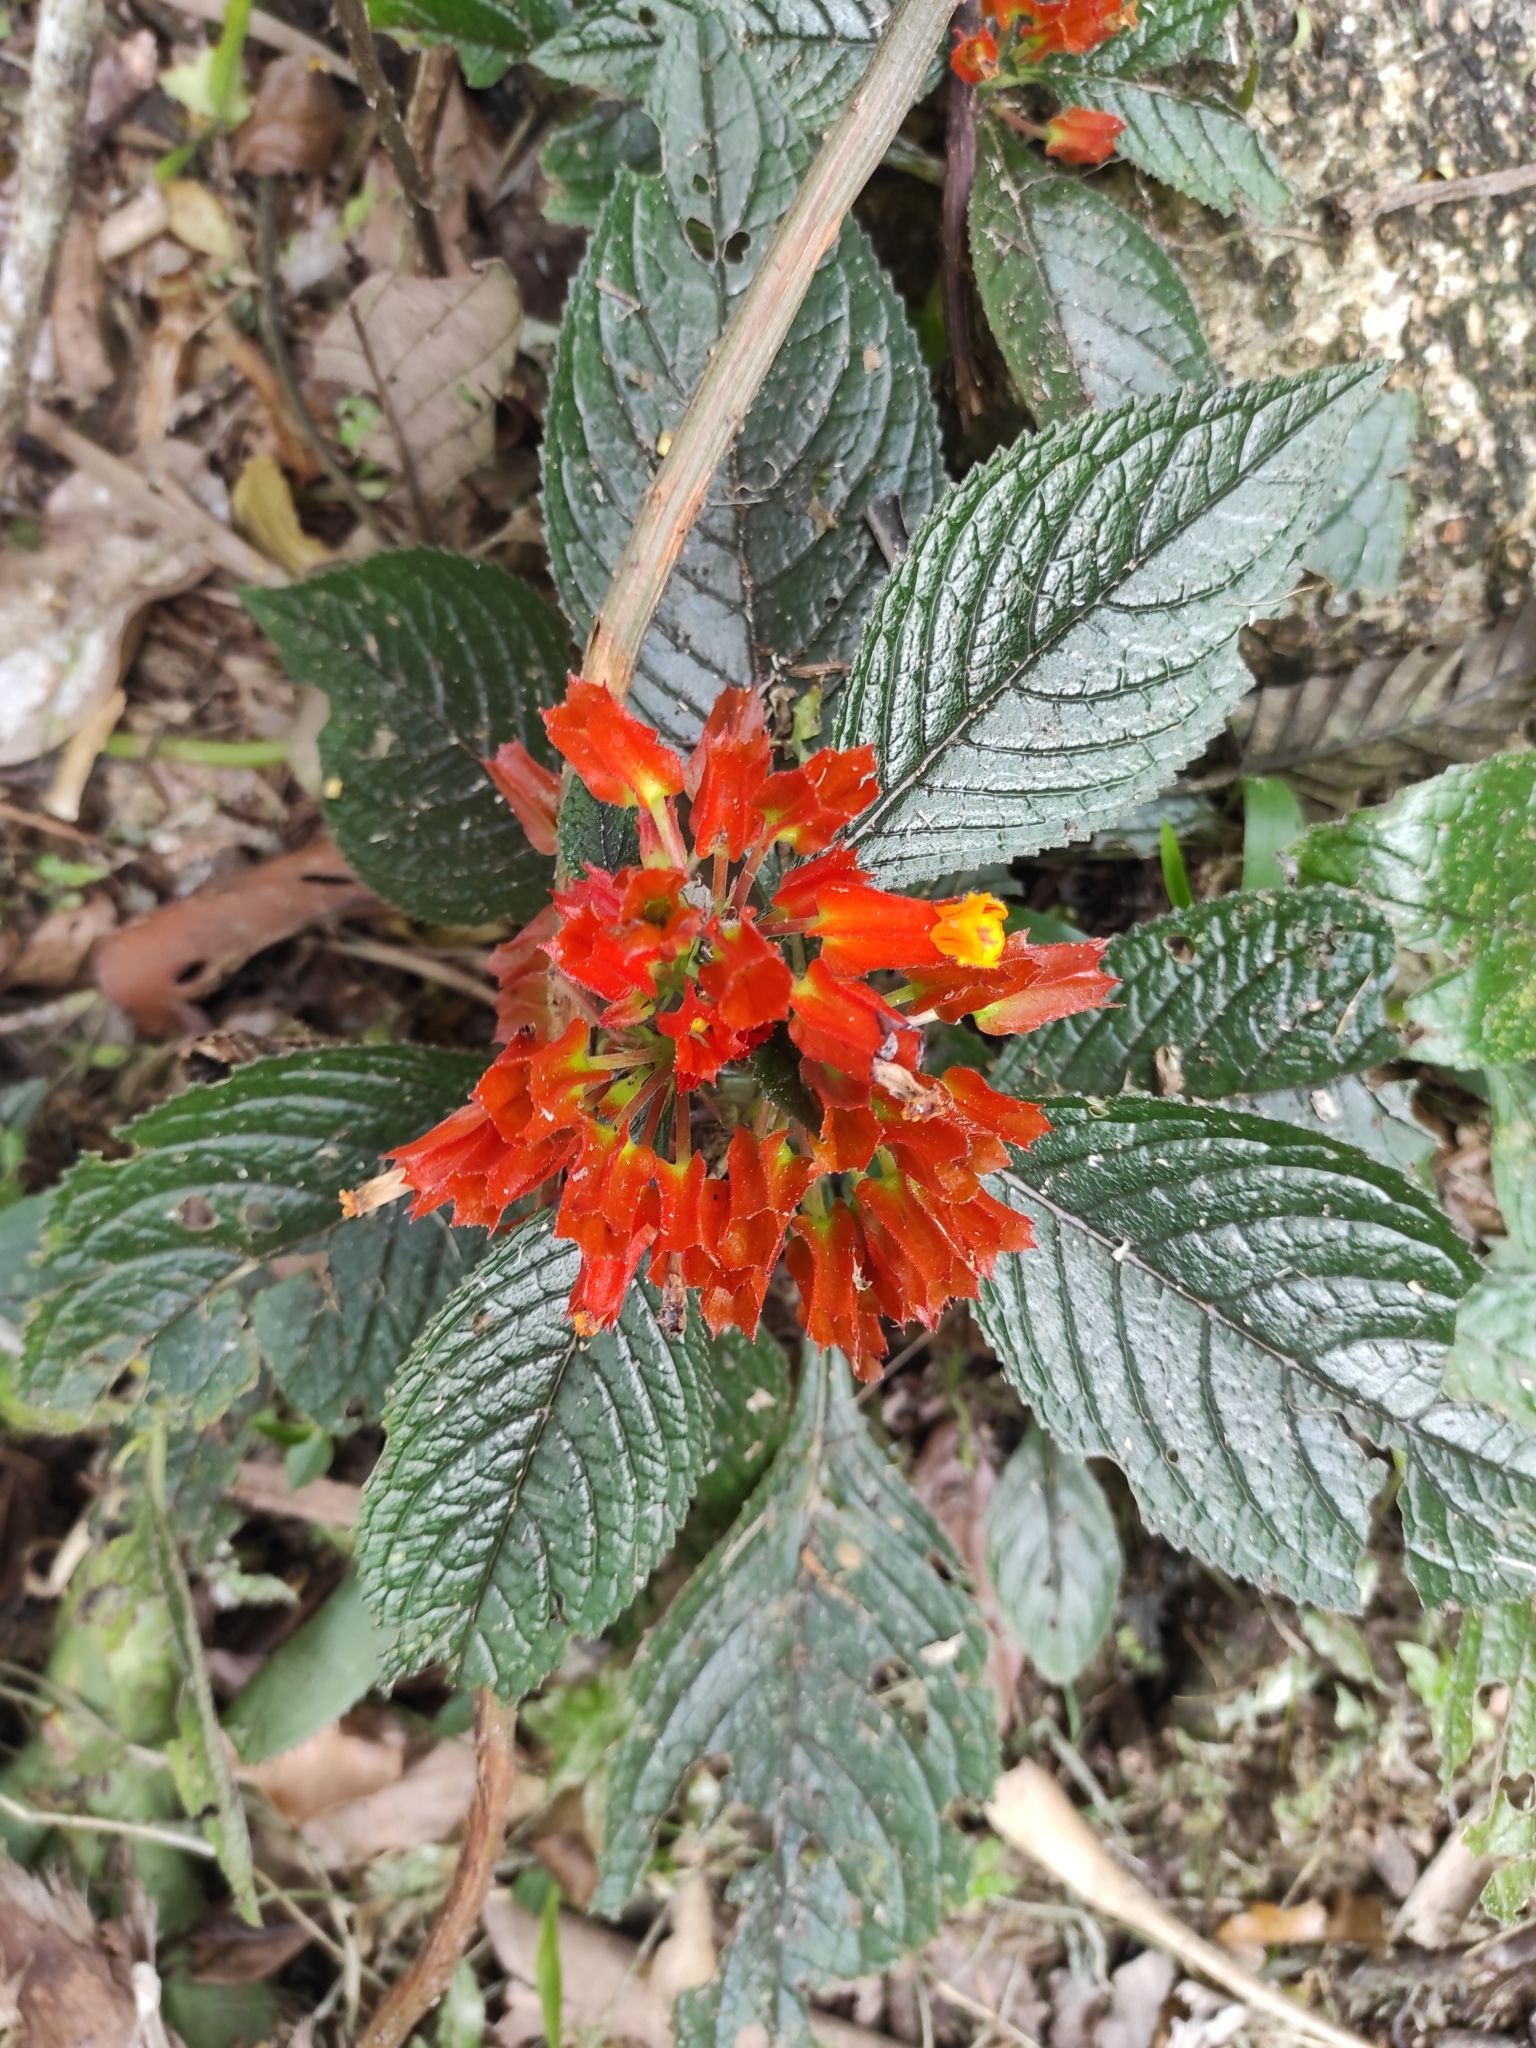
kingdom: Plantae
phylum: Tracheophyta
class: Magnoliopsida
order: Lamiales
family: Gesneriaceae
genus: Chrysothemis
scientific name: Chrysothemis pulchella
